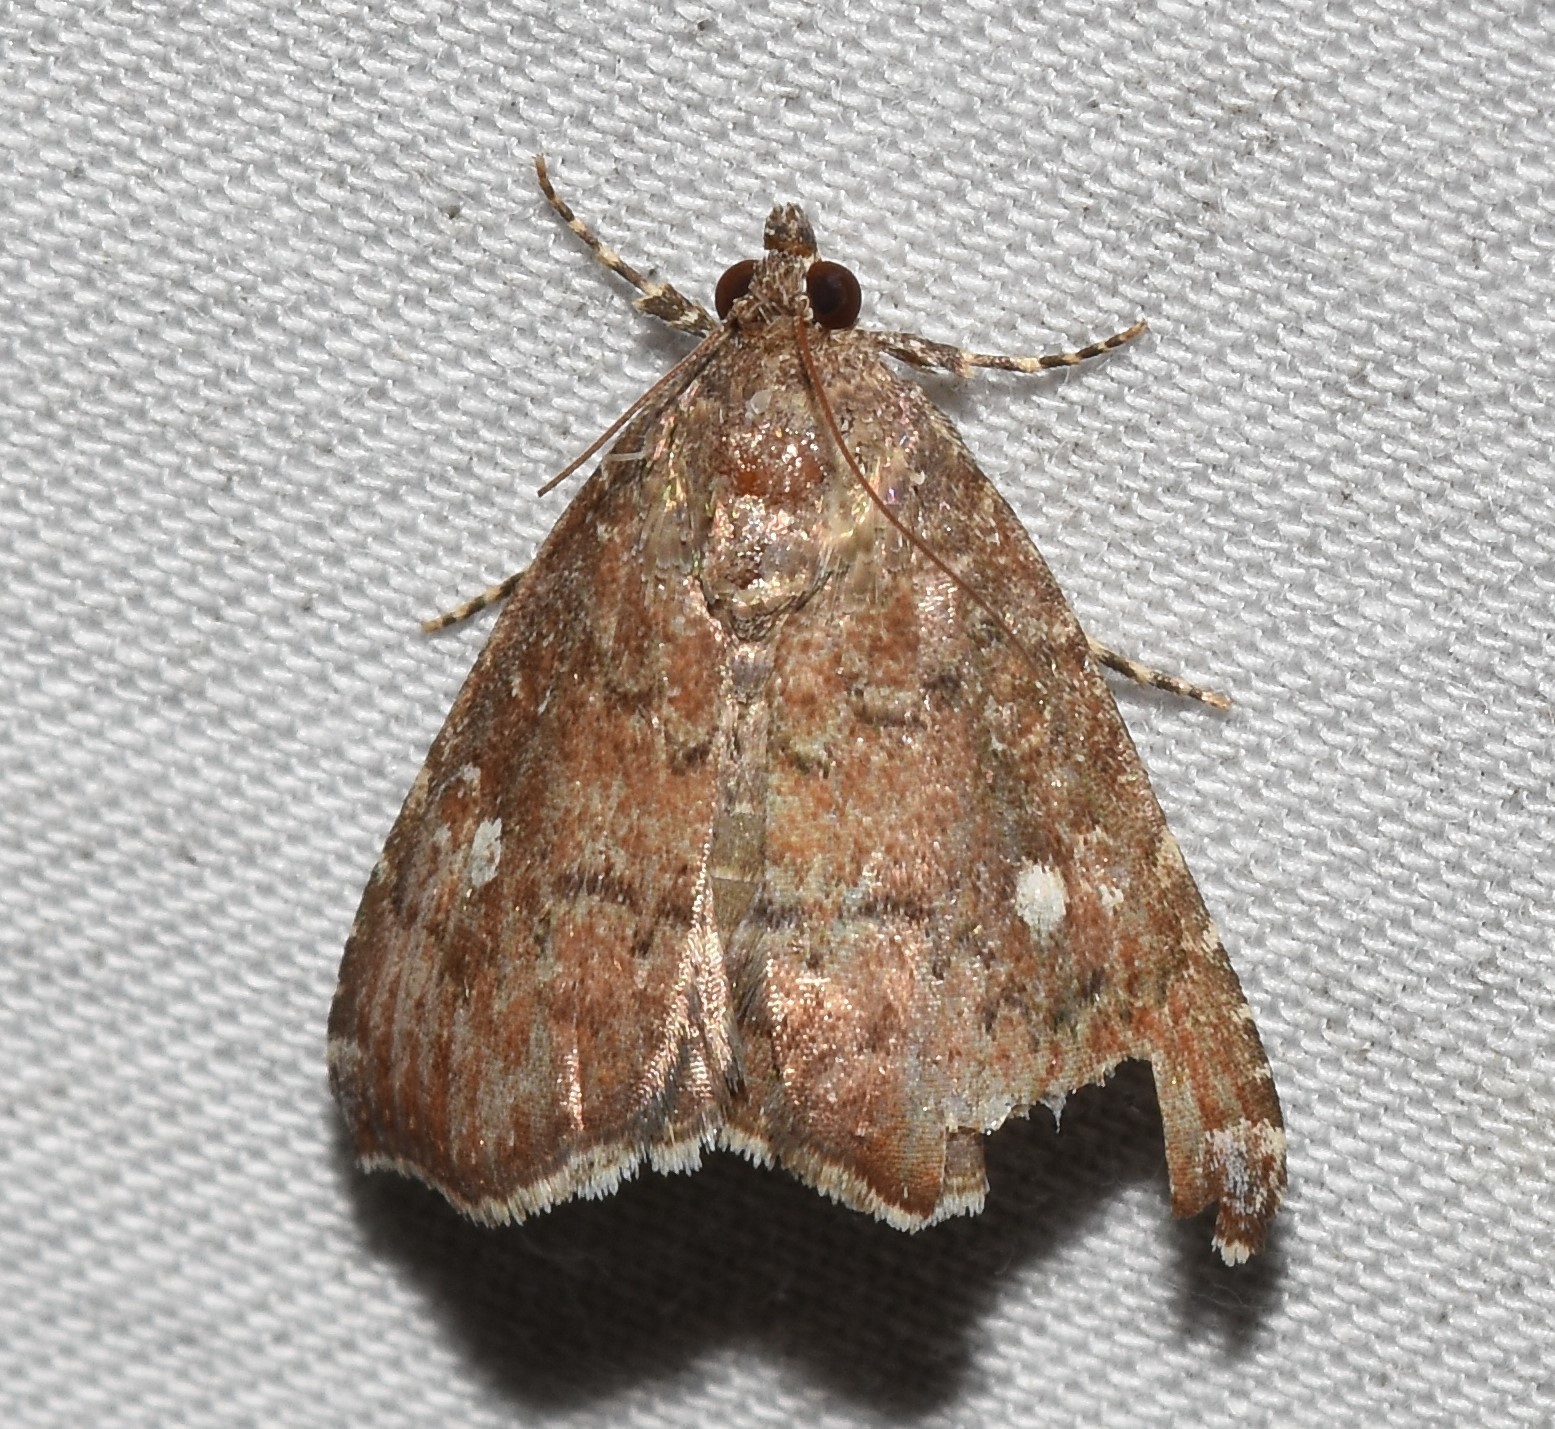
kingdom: Animalia
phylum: Arthropoda
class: Insecta
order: Lepidoptera
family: Noctuidae
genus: Amyna
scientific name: Amyna stricta
